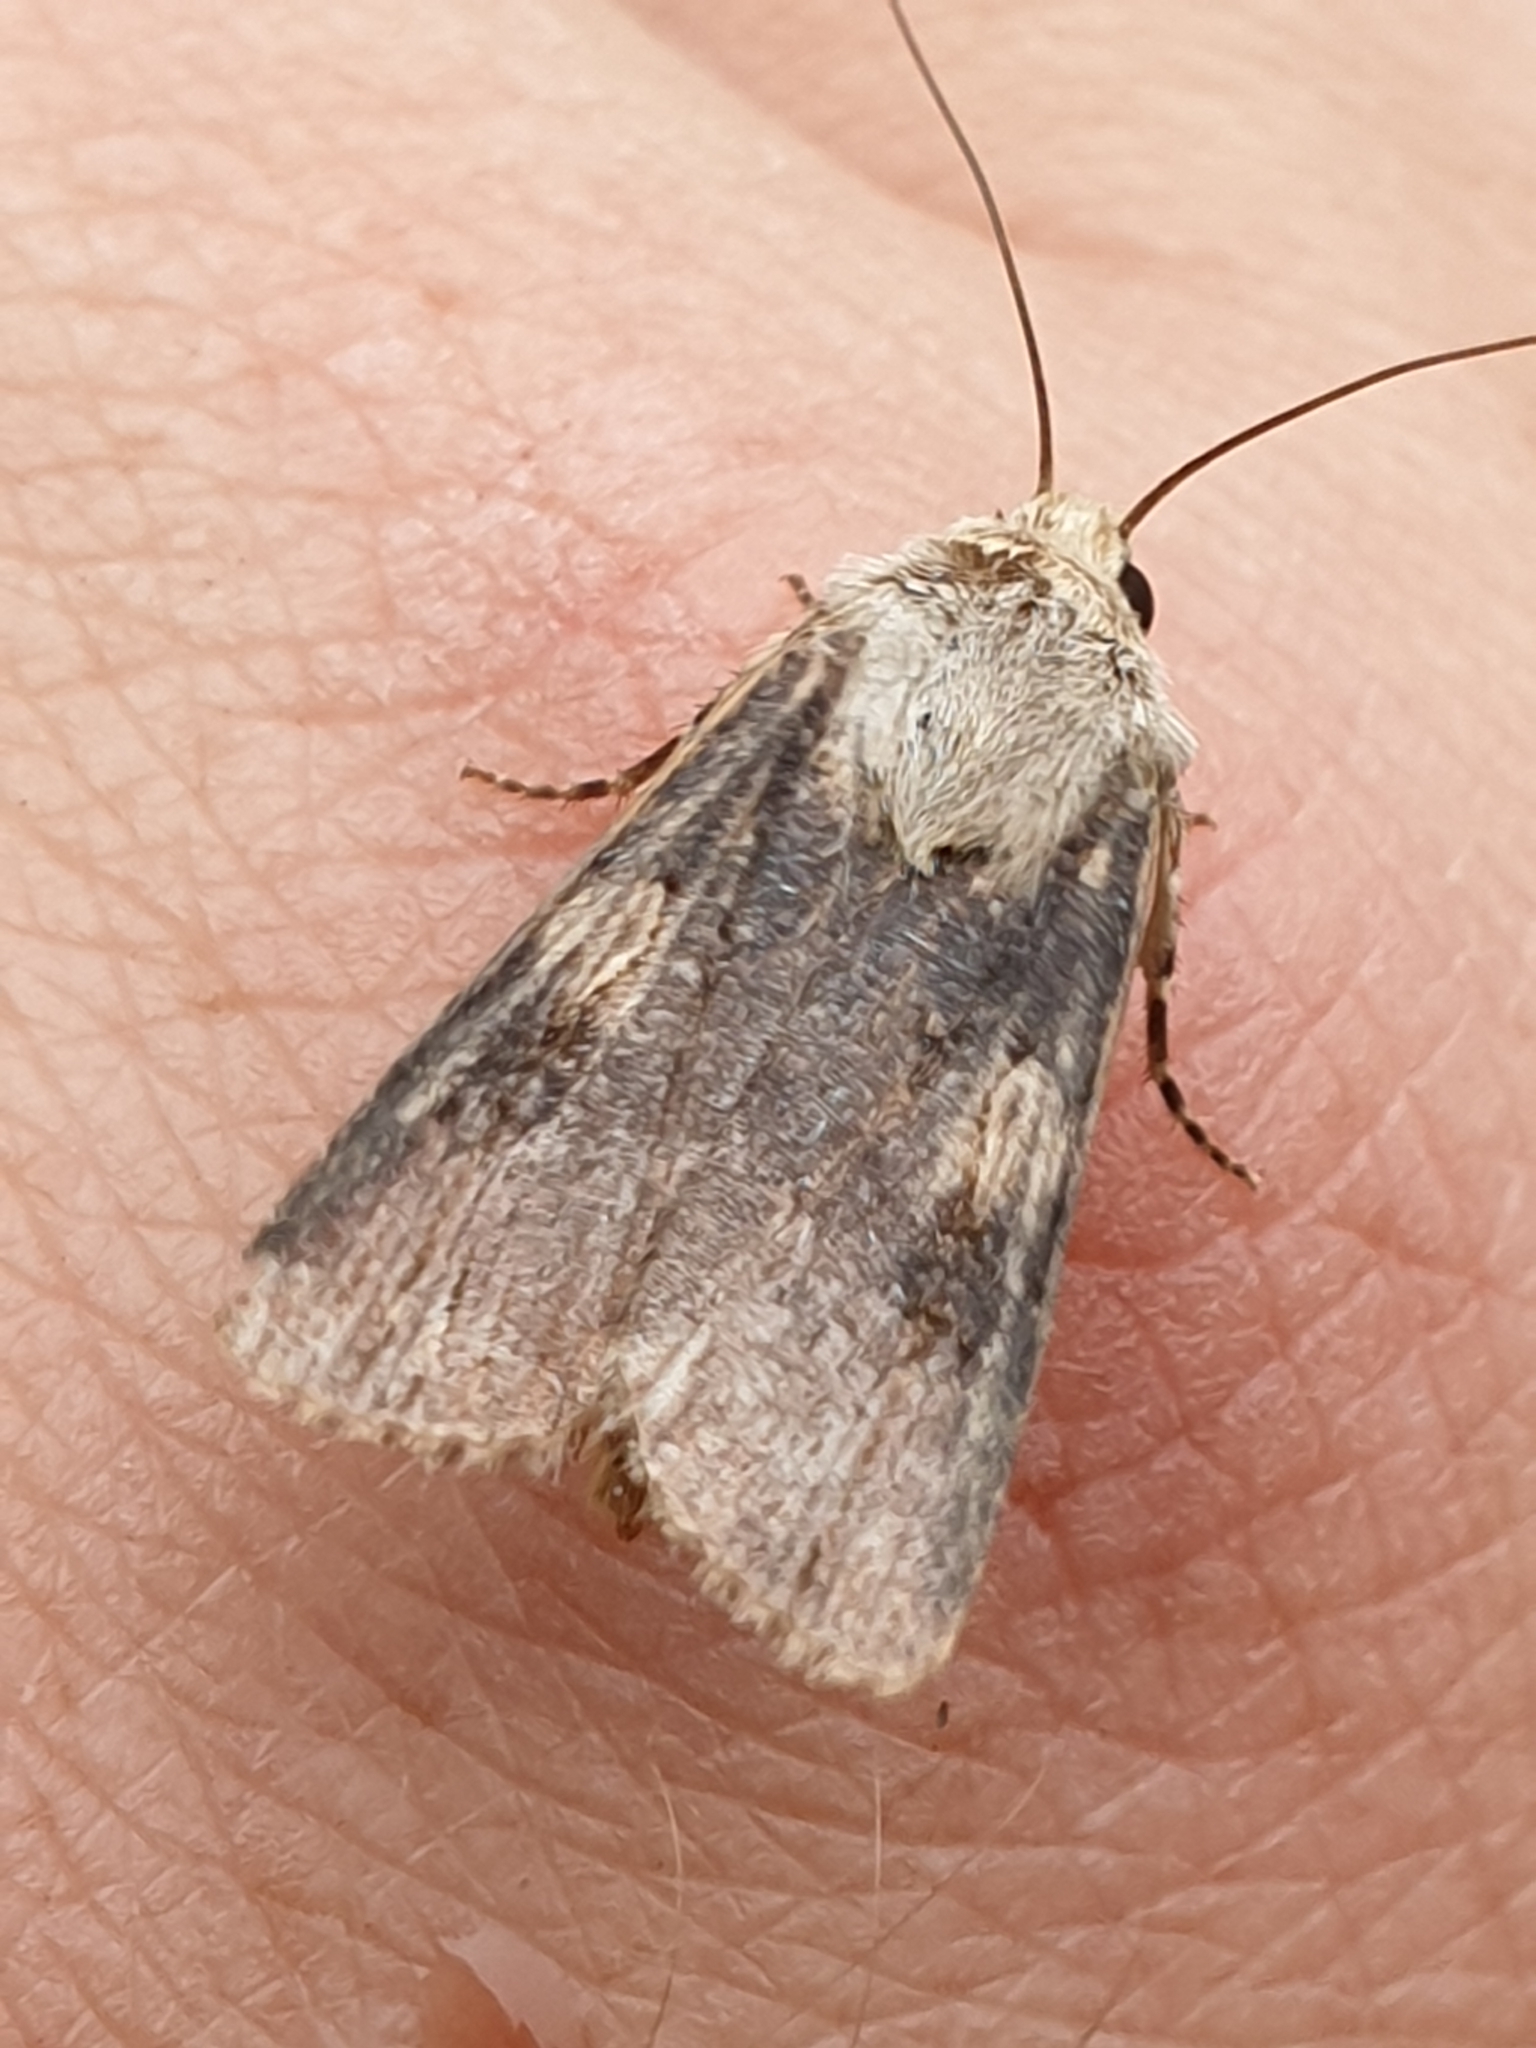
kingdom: Animalia
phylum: Arthropoda
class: Insecta
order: Lepidoptera
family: Noctuidae
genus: Agrotis
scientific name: Agrotis puta
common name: Shuttle-shaped dart
